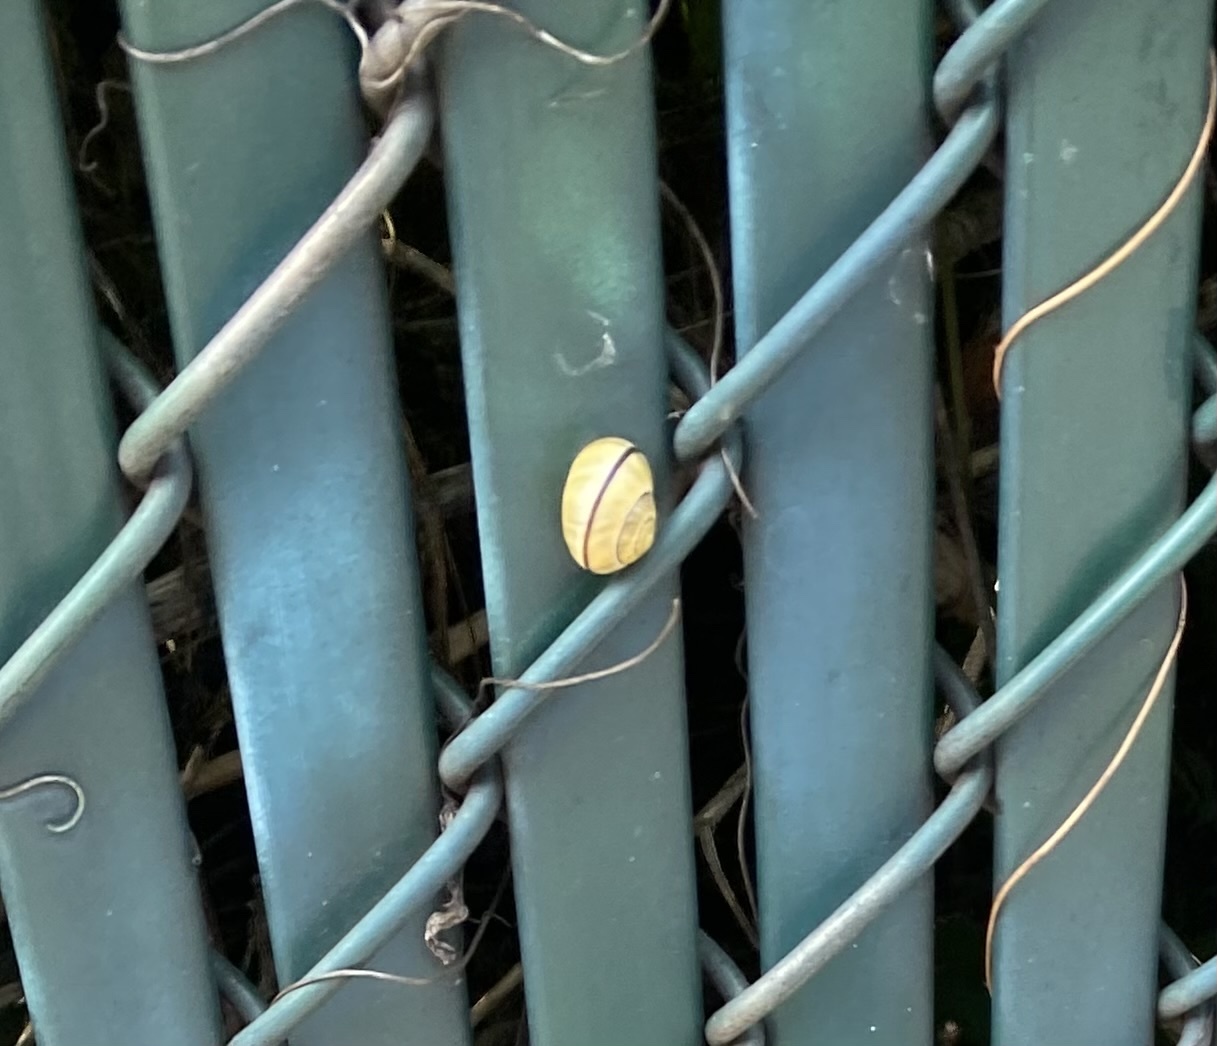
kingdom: Animalia
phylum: Mollusca
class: Gastropoda
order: Stylommatophora
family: Helicidae
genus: Cepaea
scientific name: Cepaea nemoralis
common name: Grovesnail
